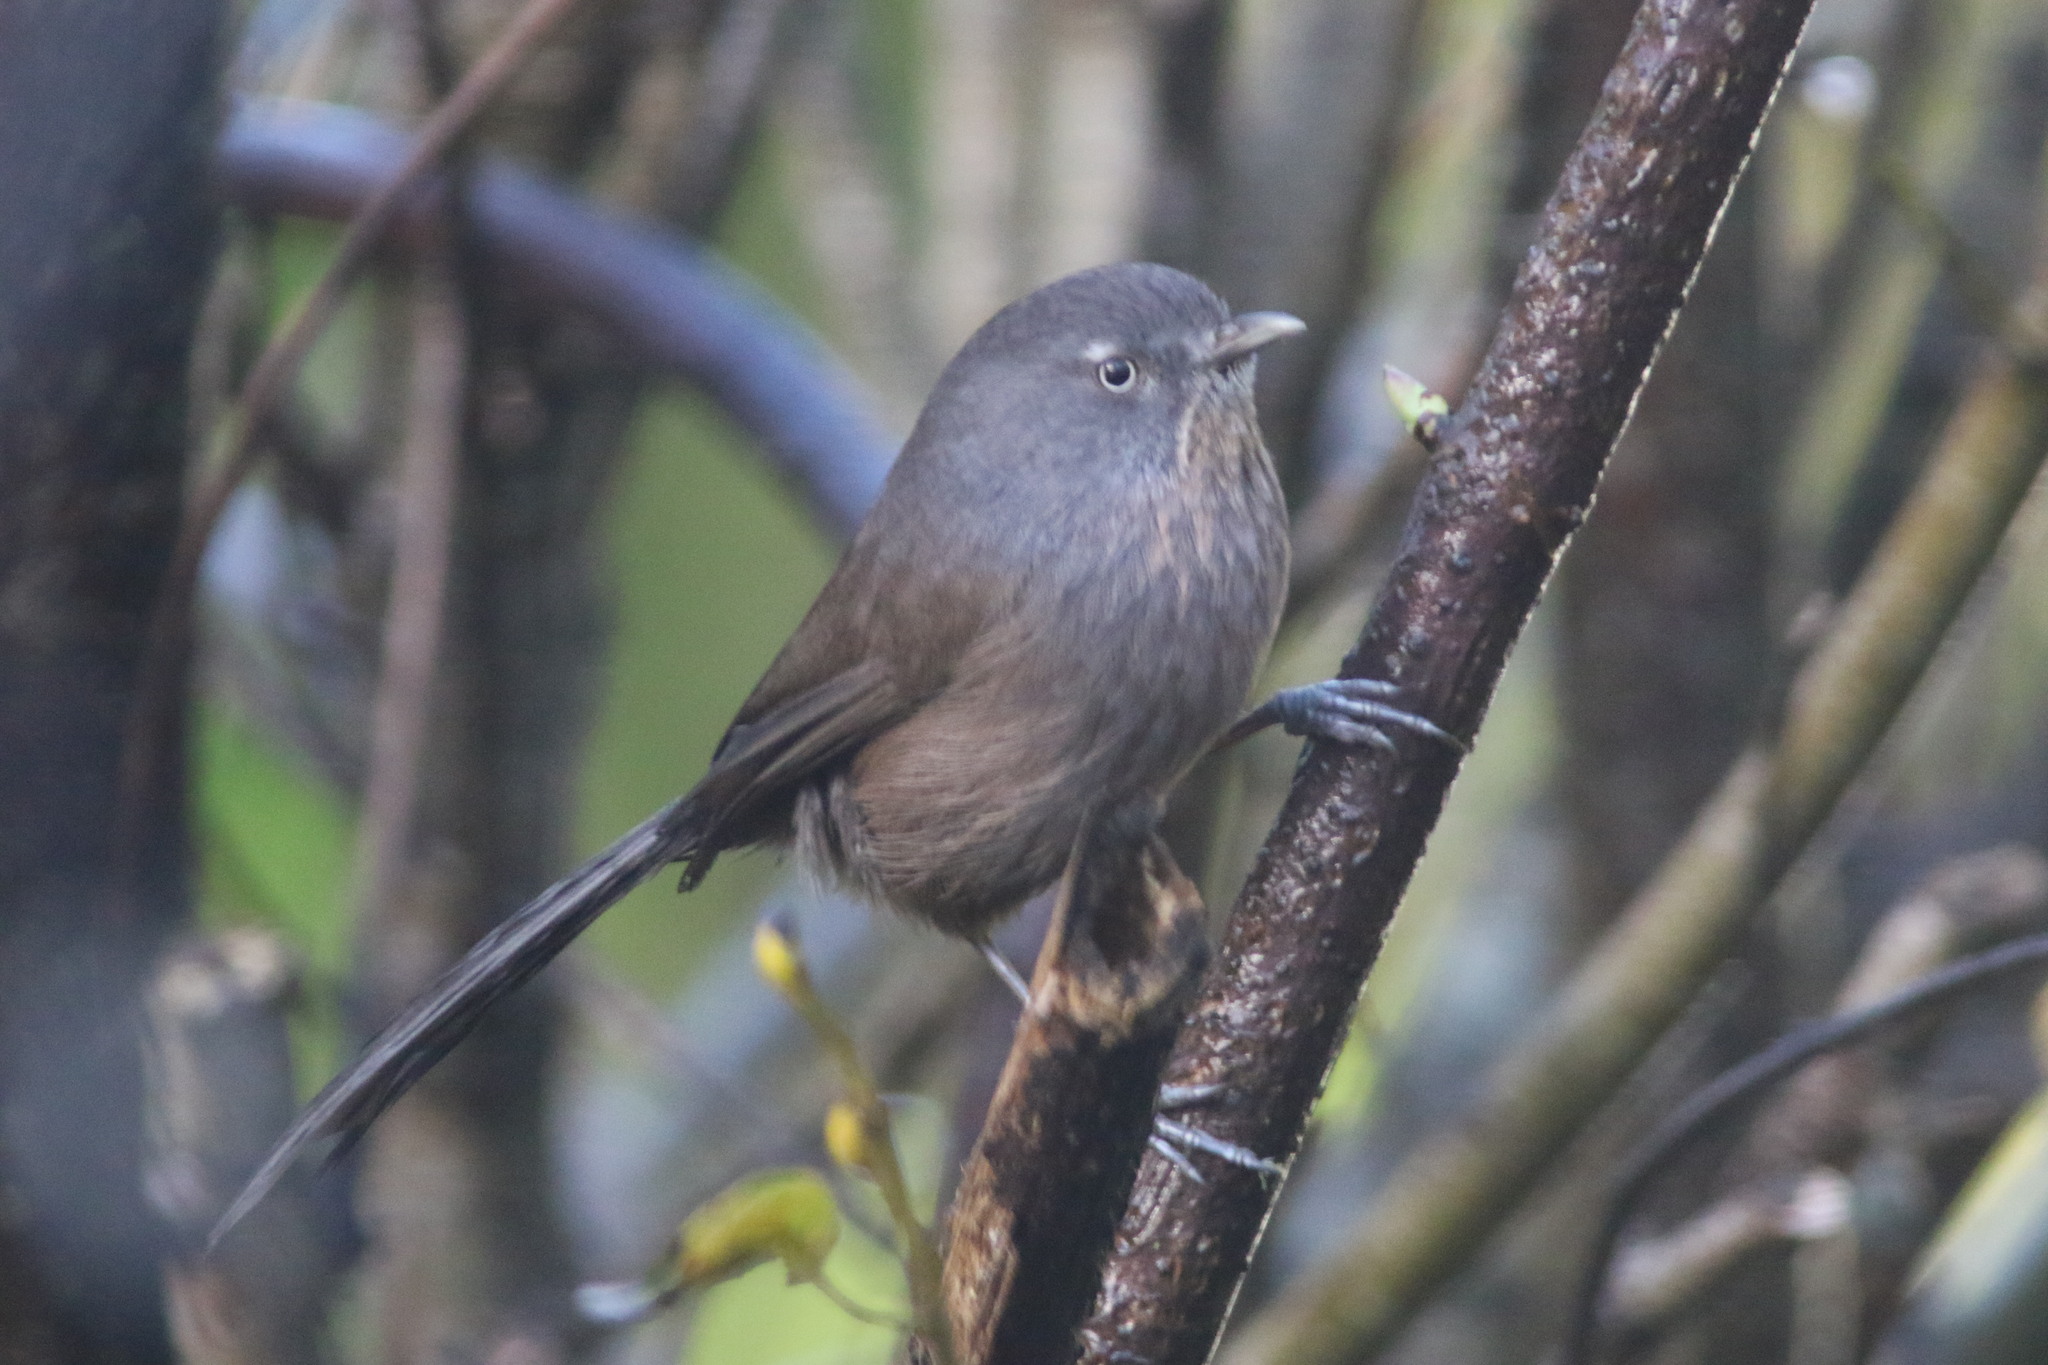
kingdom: Animalia
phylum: Chordata
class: Aves
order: Passeriformes
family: Sylviidae
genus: Chamaea
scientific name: Chamaea fasciata
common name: Wrentit
